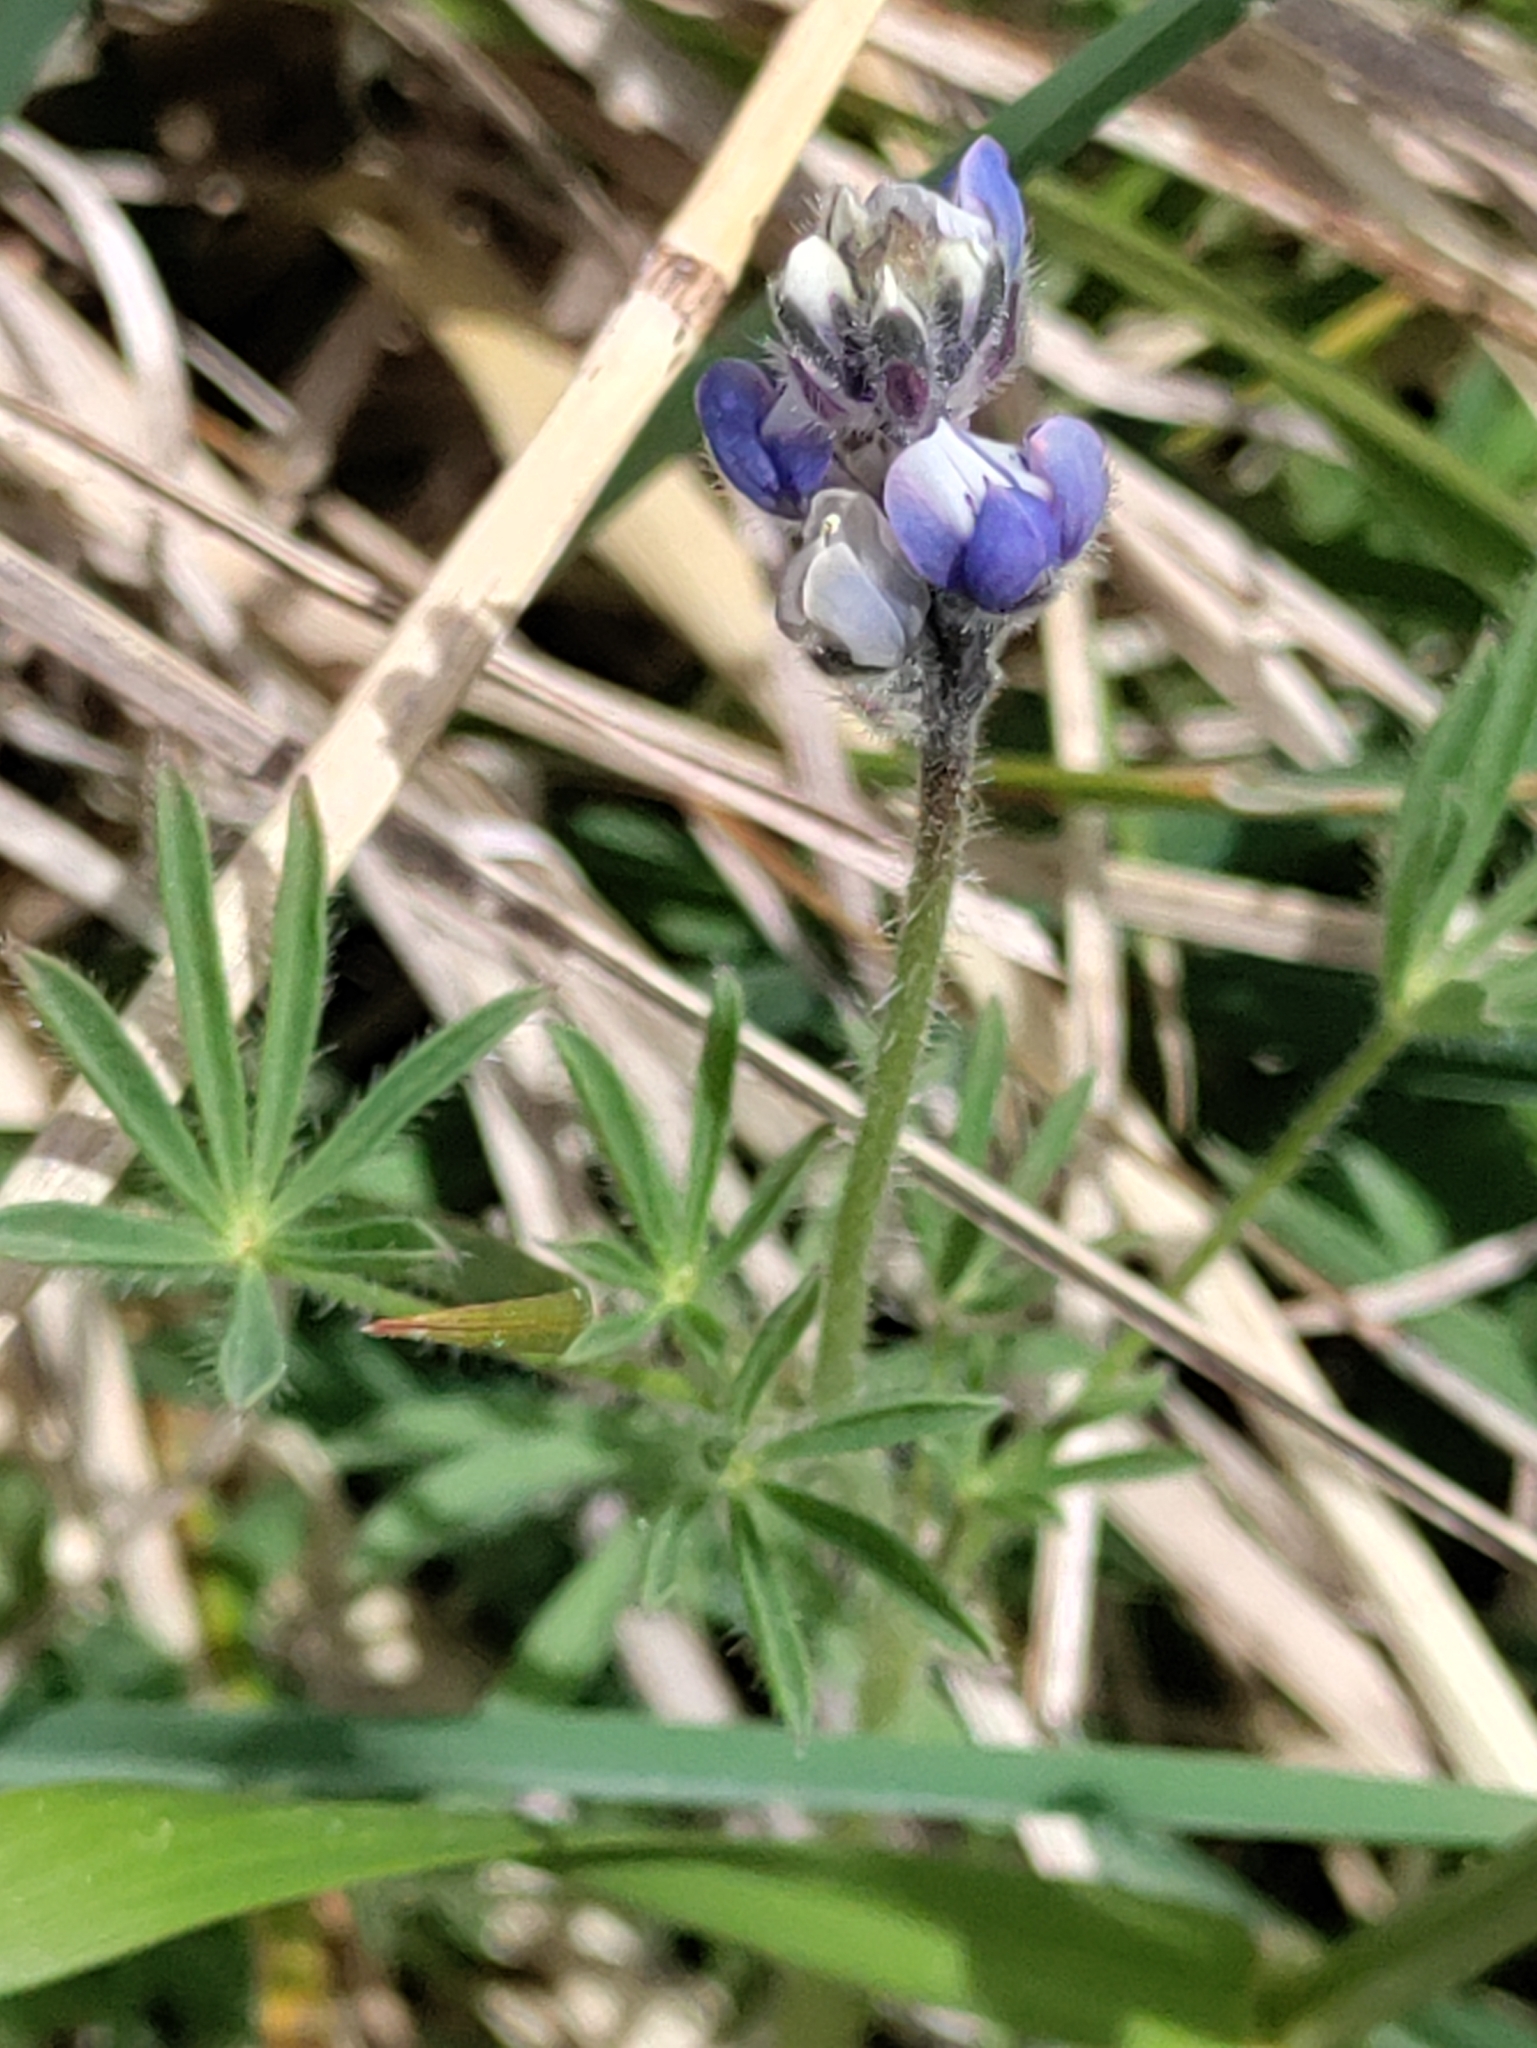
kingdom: Plantae
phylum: Tracheophyta
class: Magnoliopsida
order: Fabales
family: Fabaceae
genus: Lupinus
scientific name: Lupinus bicolor
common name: Miniature lupine
